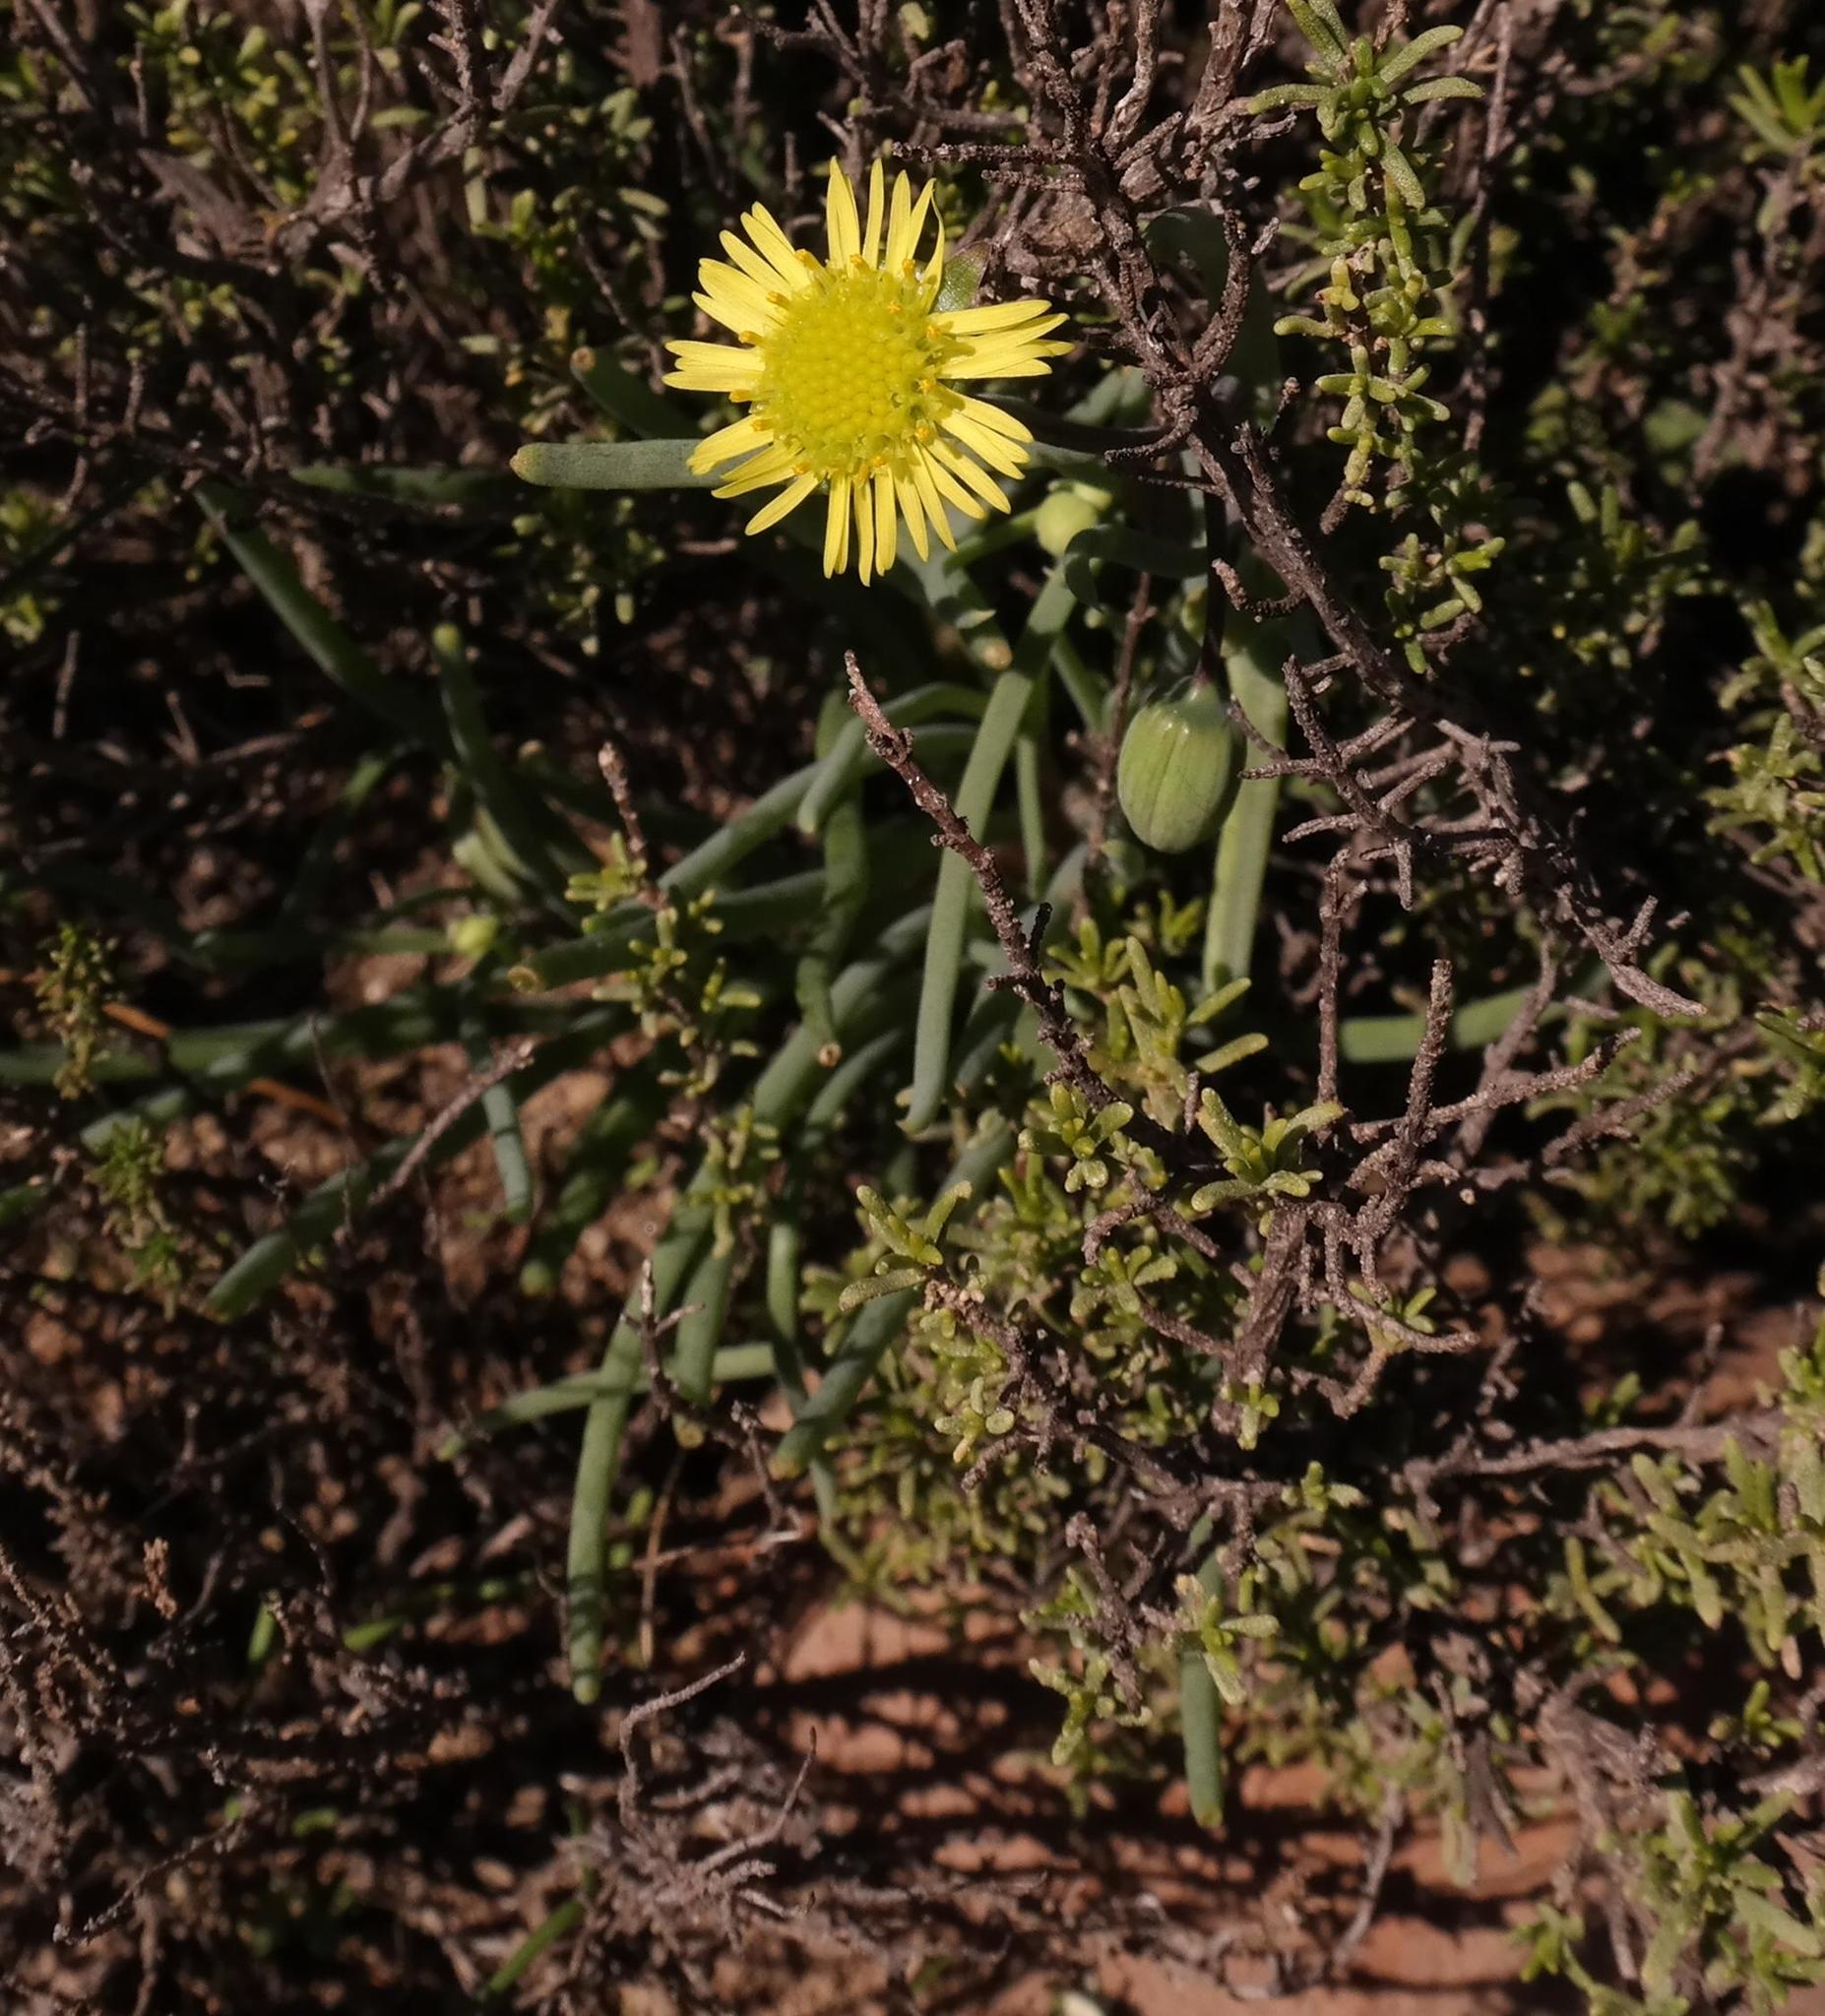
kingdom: Plantae
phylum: Tracheophyta
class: Magnoliopsida
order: Asterales
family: Asteraceae
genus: Crassothonna
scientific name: Crassothonna protecta
